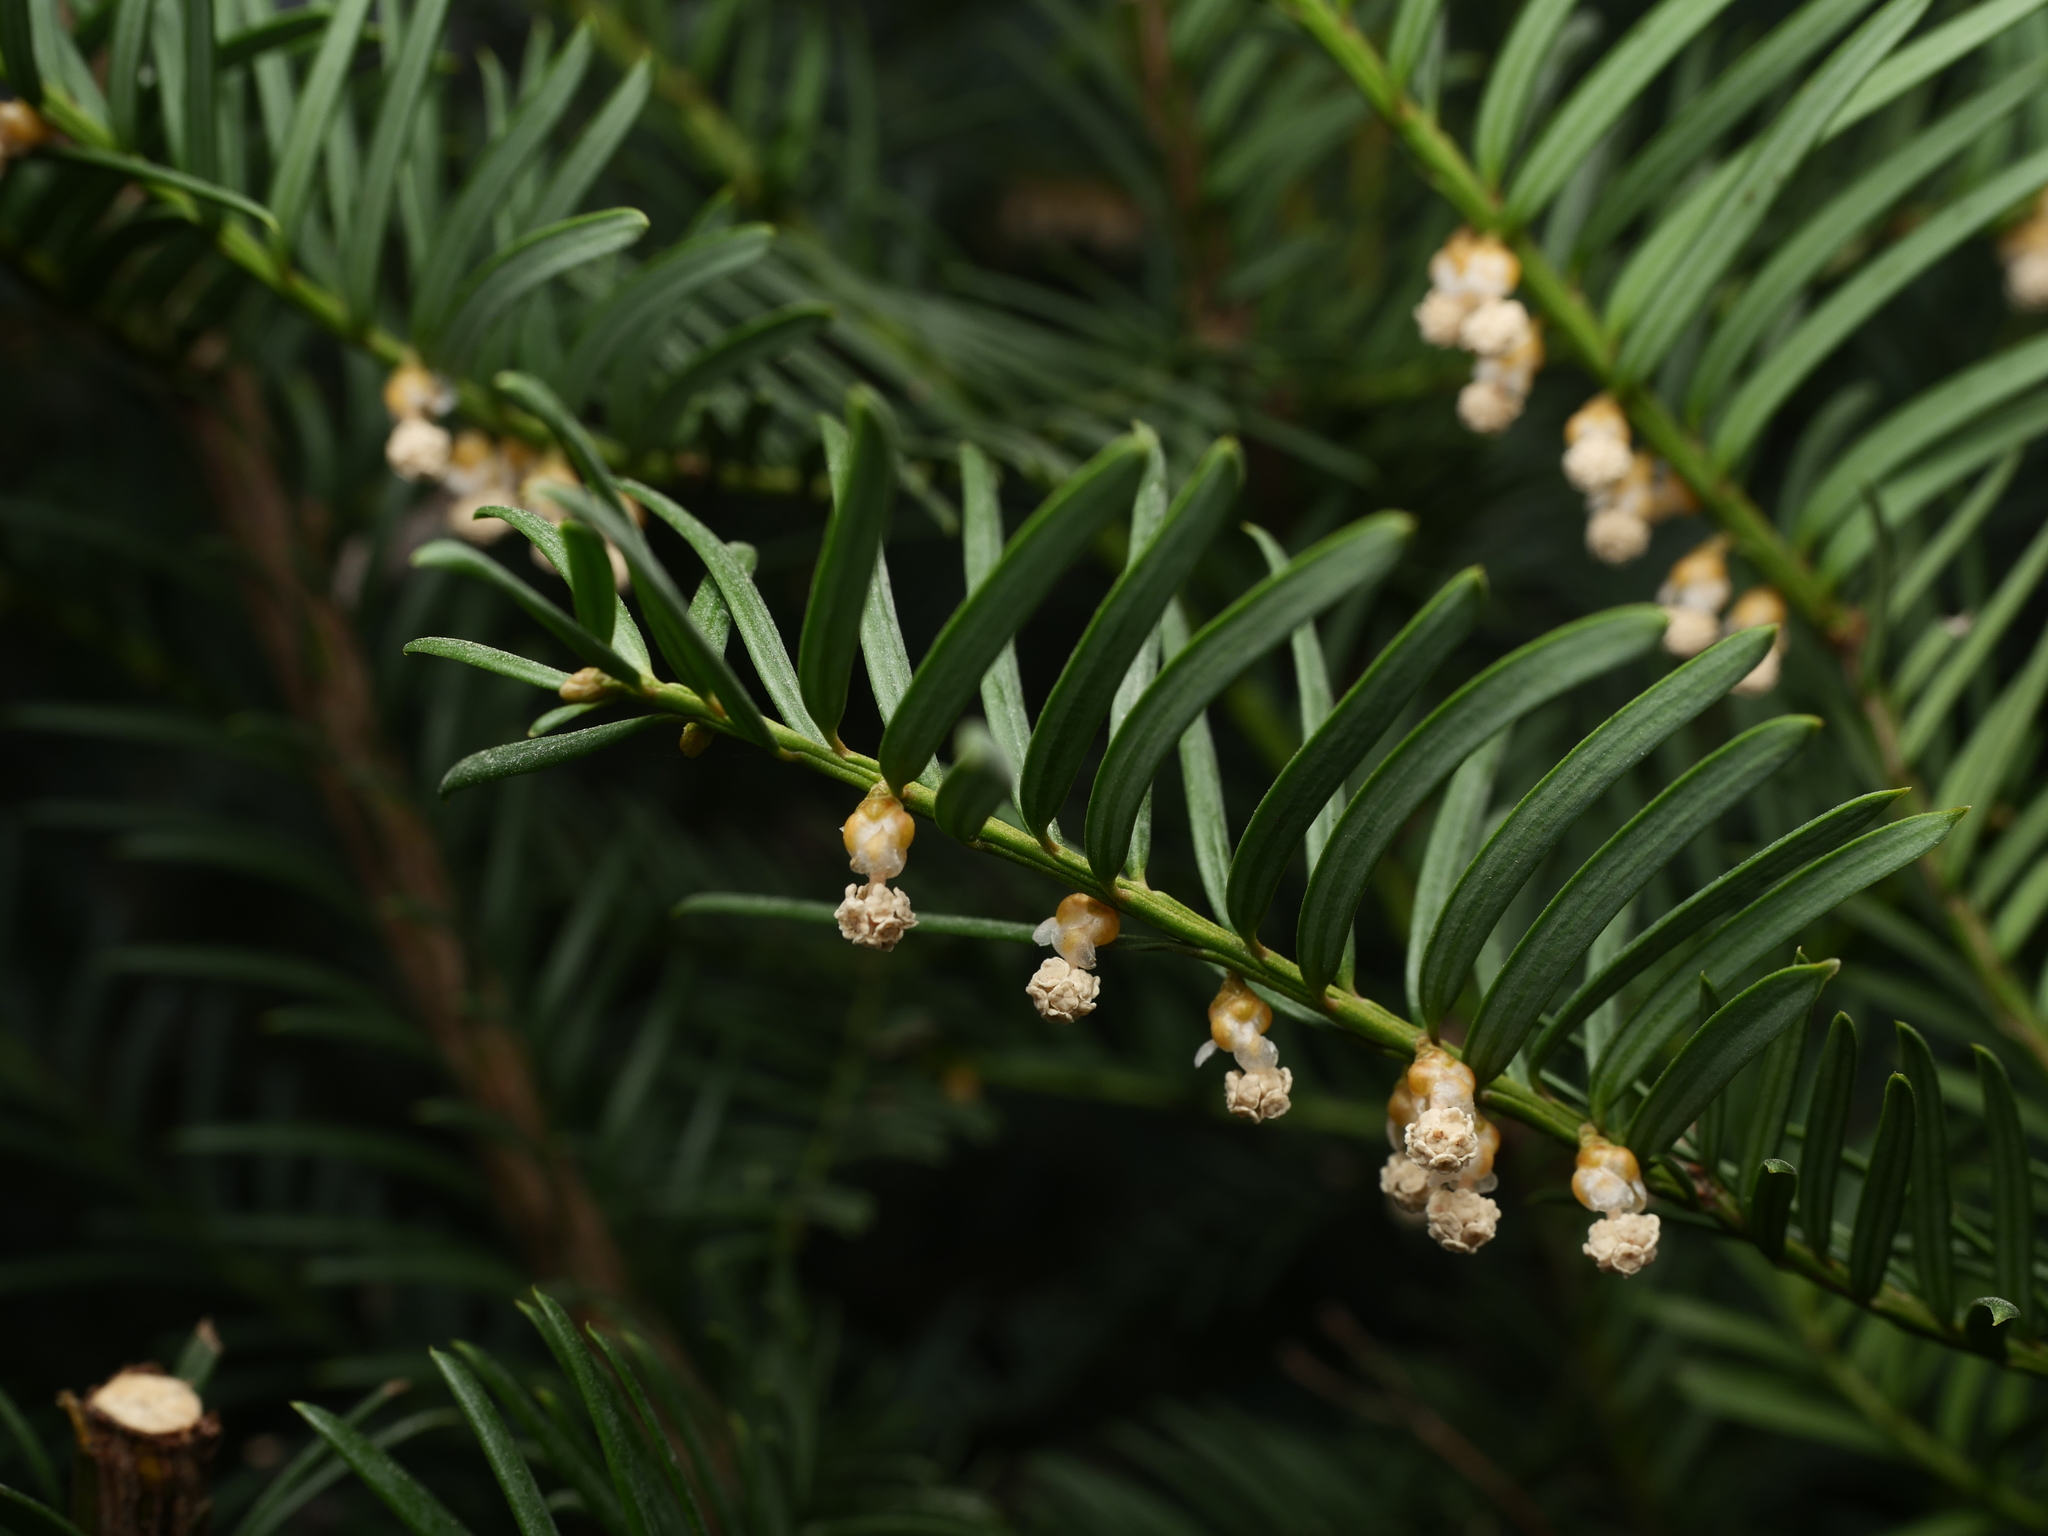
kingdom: Plantae
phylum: Tracheophyta
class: Pinopsida
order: Pinales
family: Taxaceae
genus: Taxus
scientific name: Taxus baccata
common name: Yew
